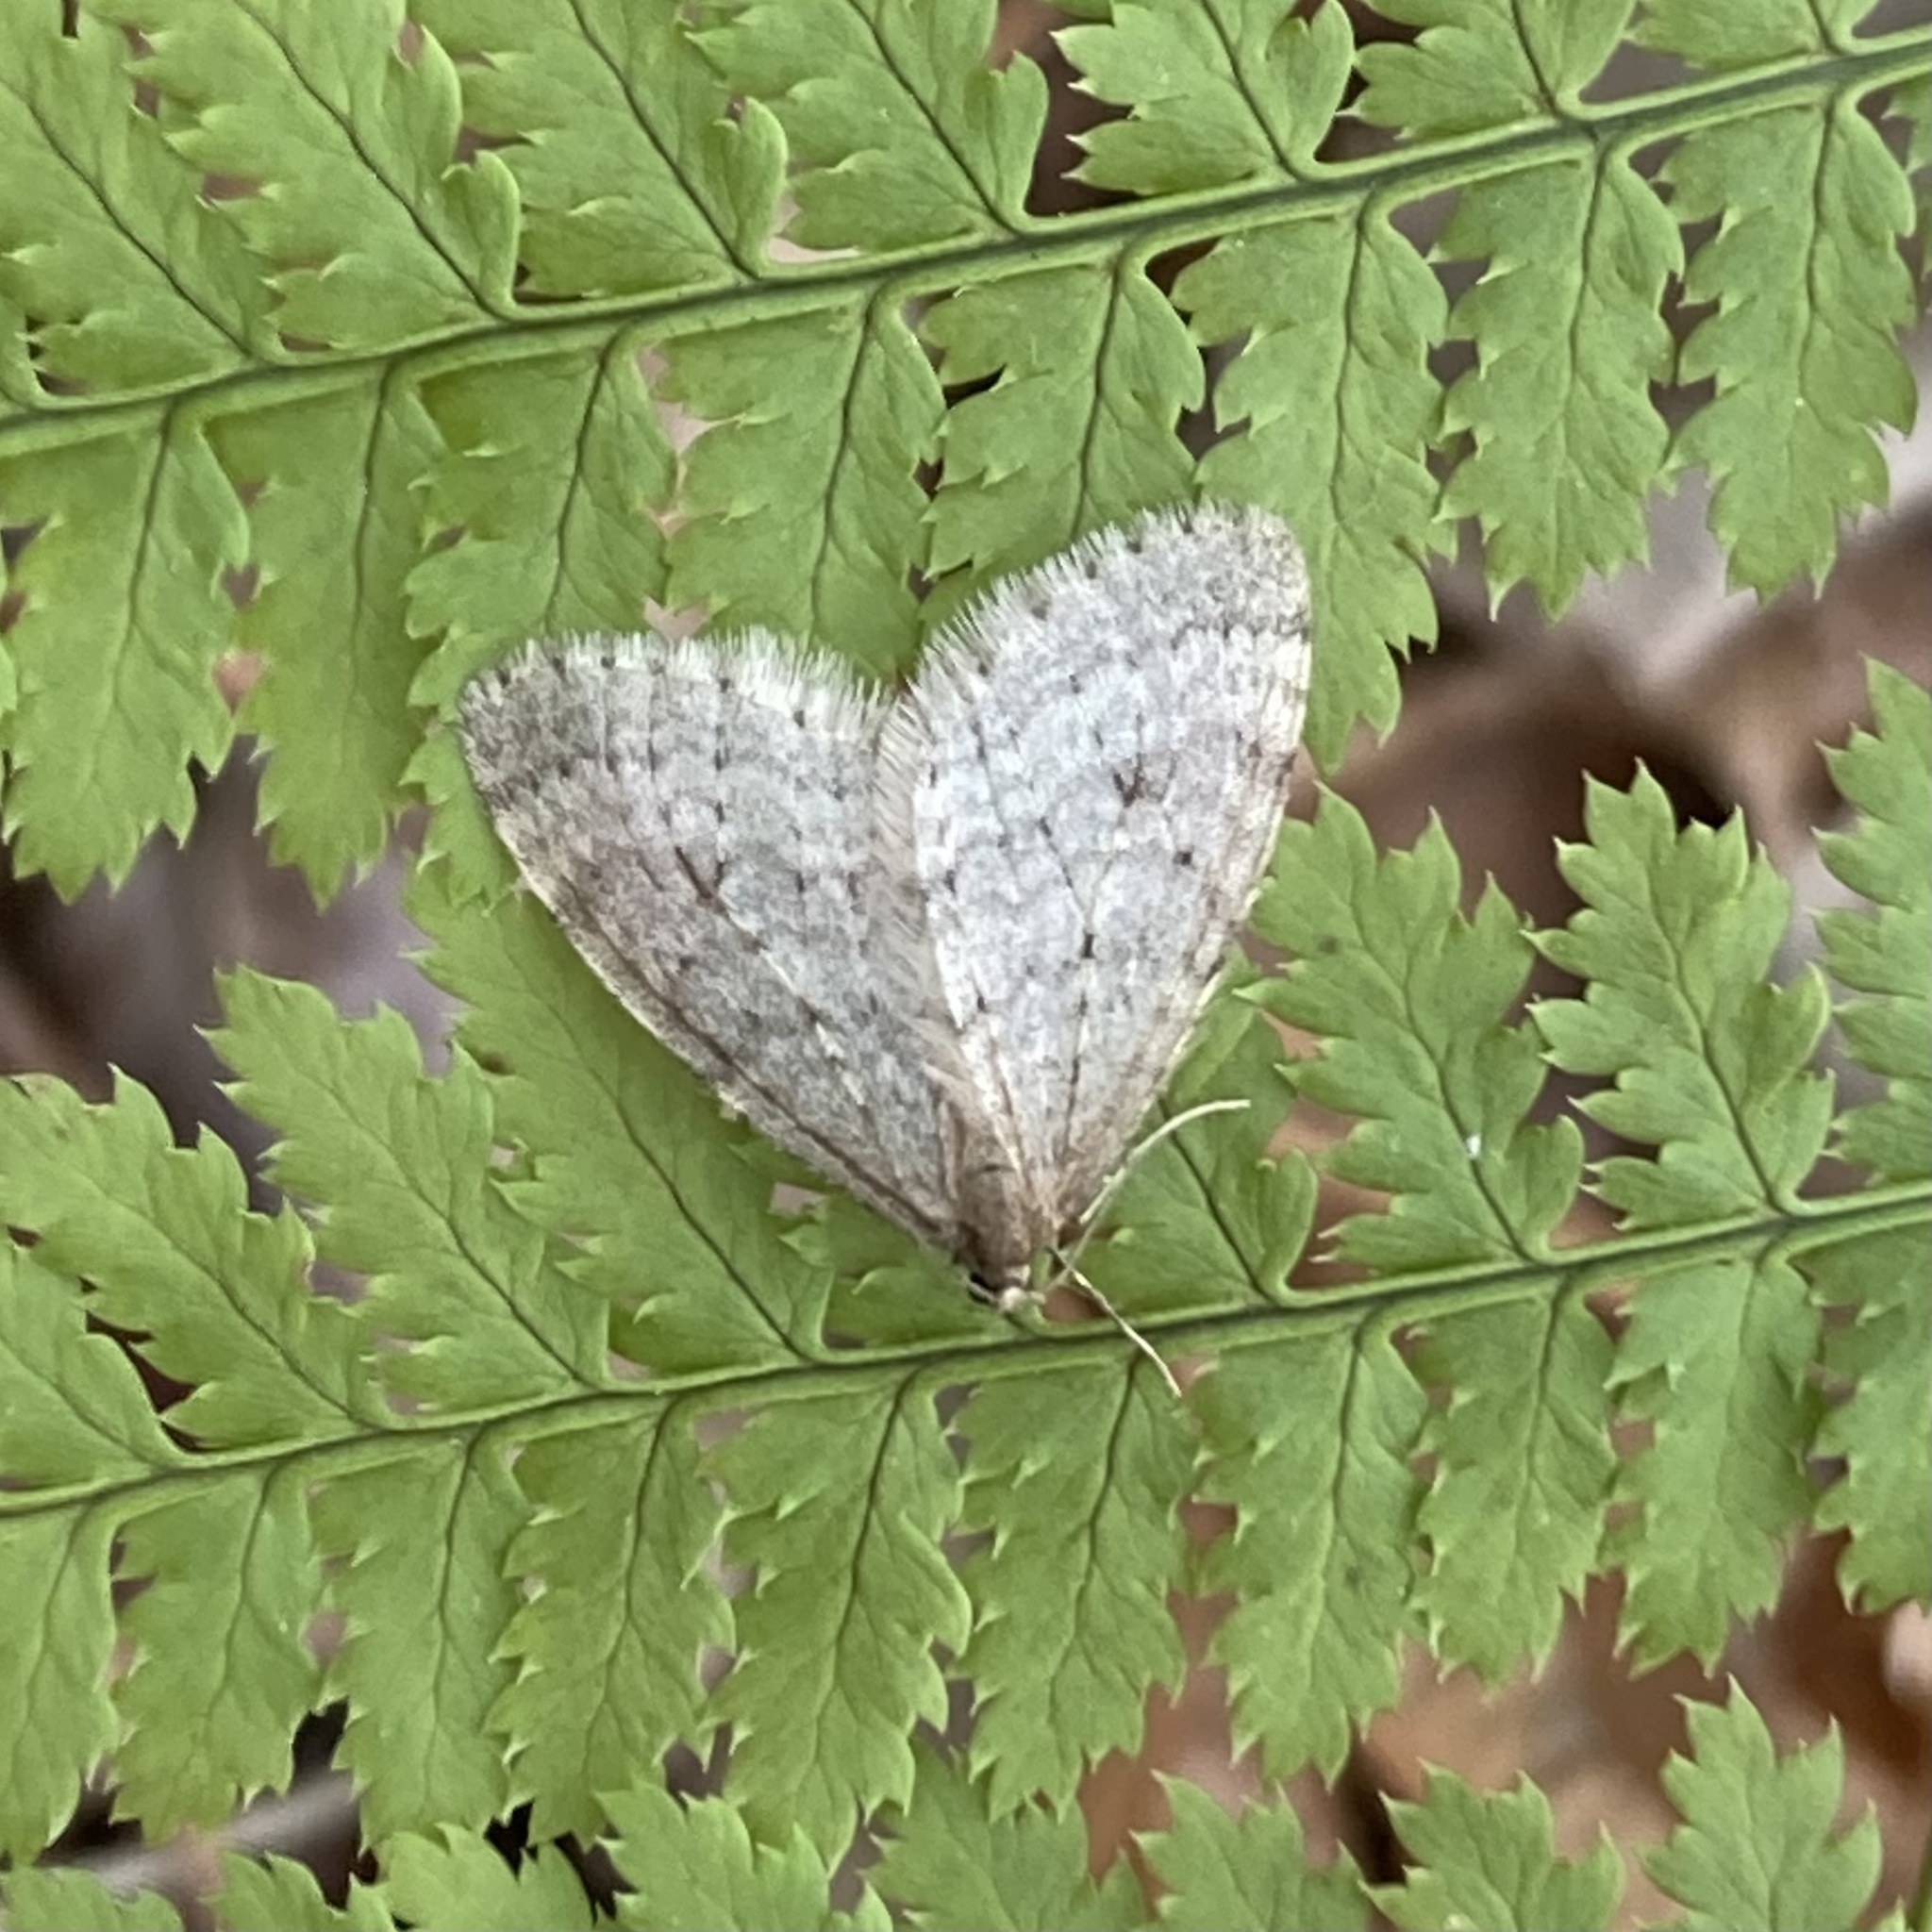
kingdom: Animalia
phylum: Arthropoda
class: Insecta
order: Lepidoptera
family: Geometridae
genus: Operophtera
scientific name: Operophtera bruceata
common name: Bruce spanworm
